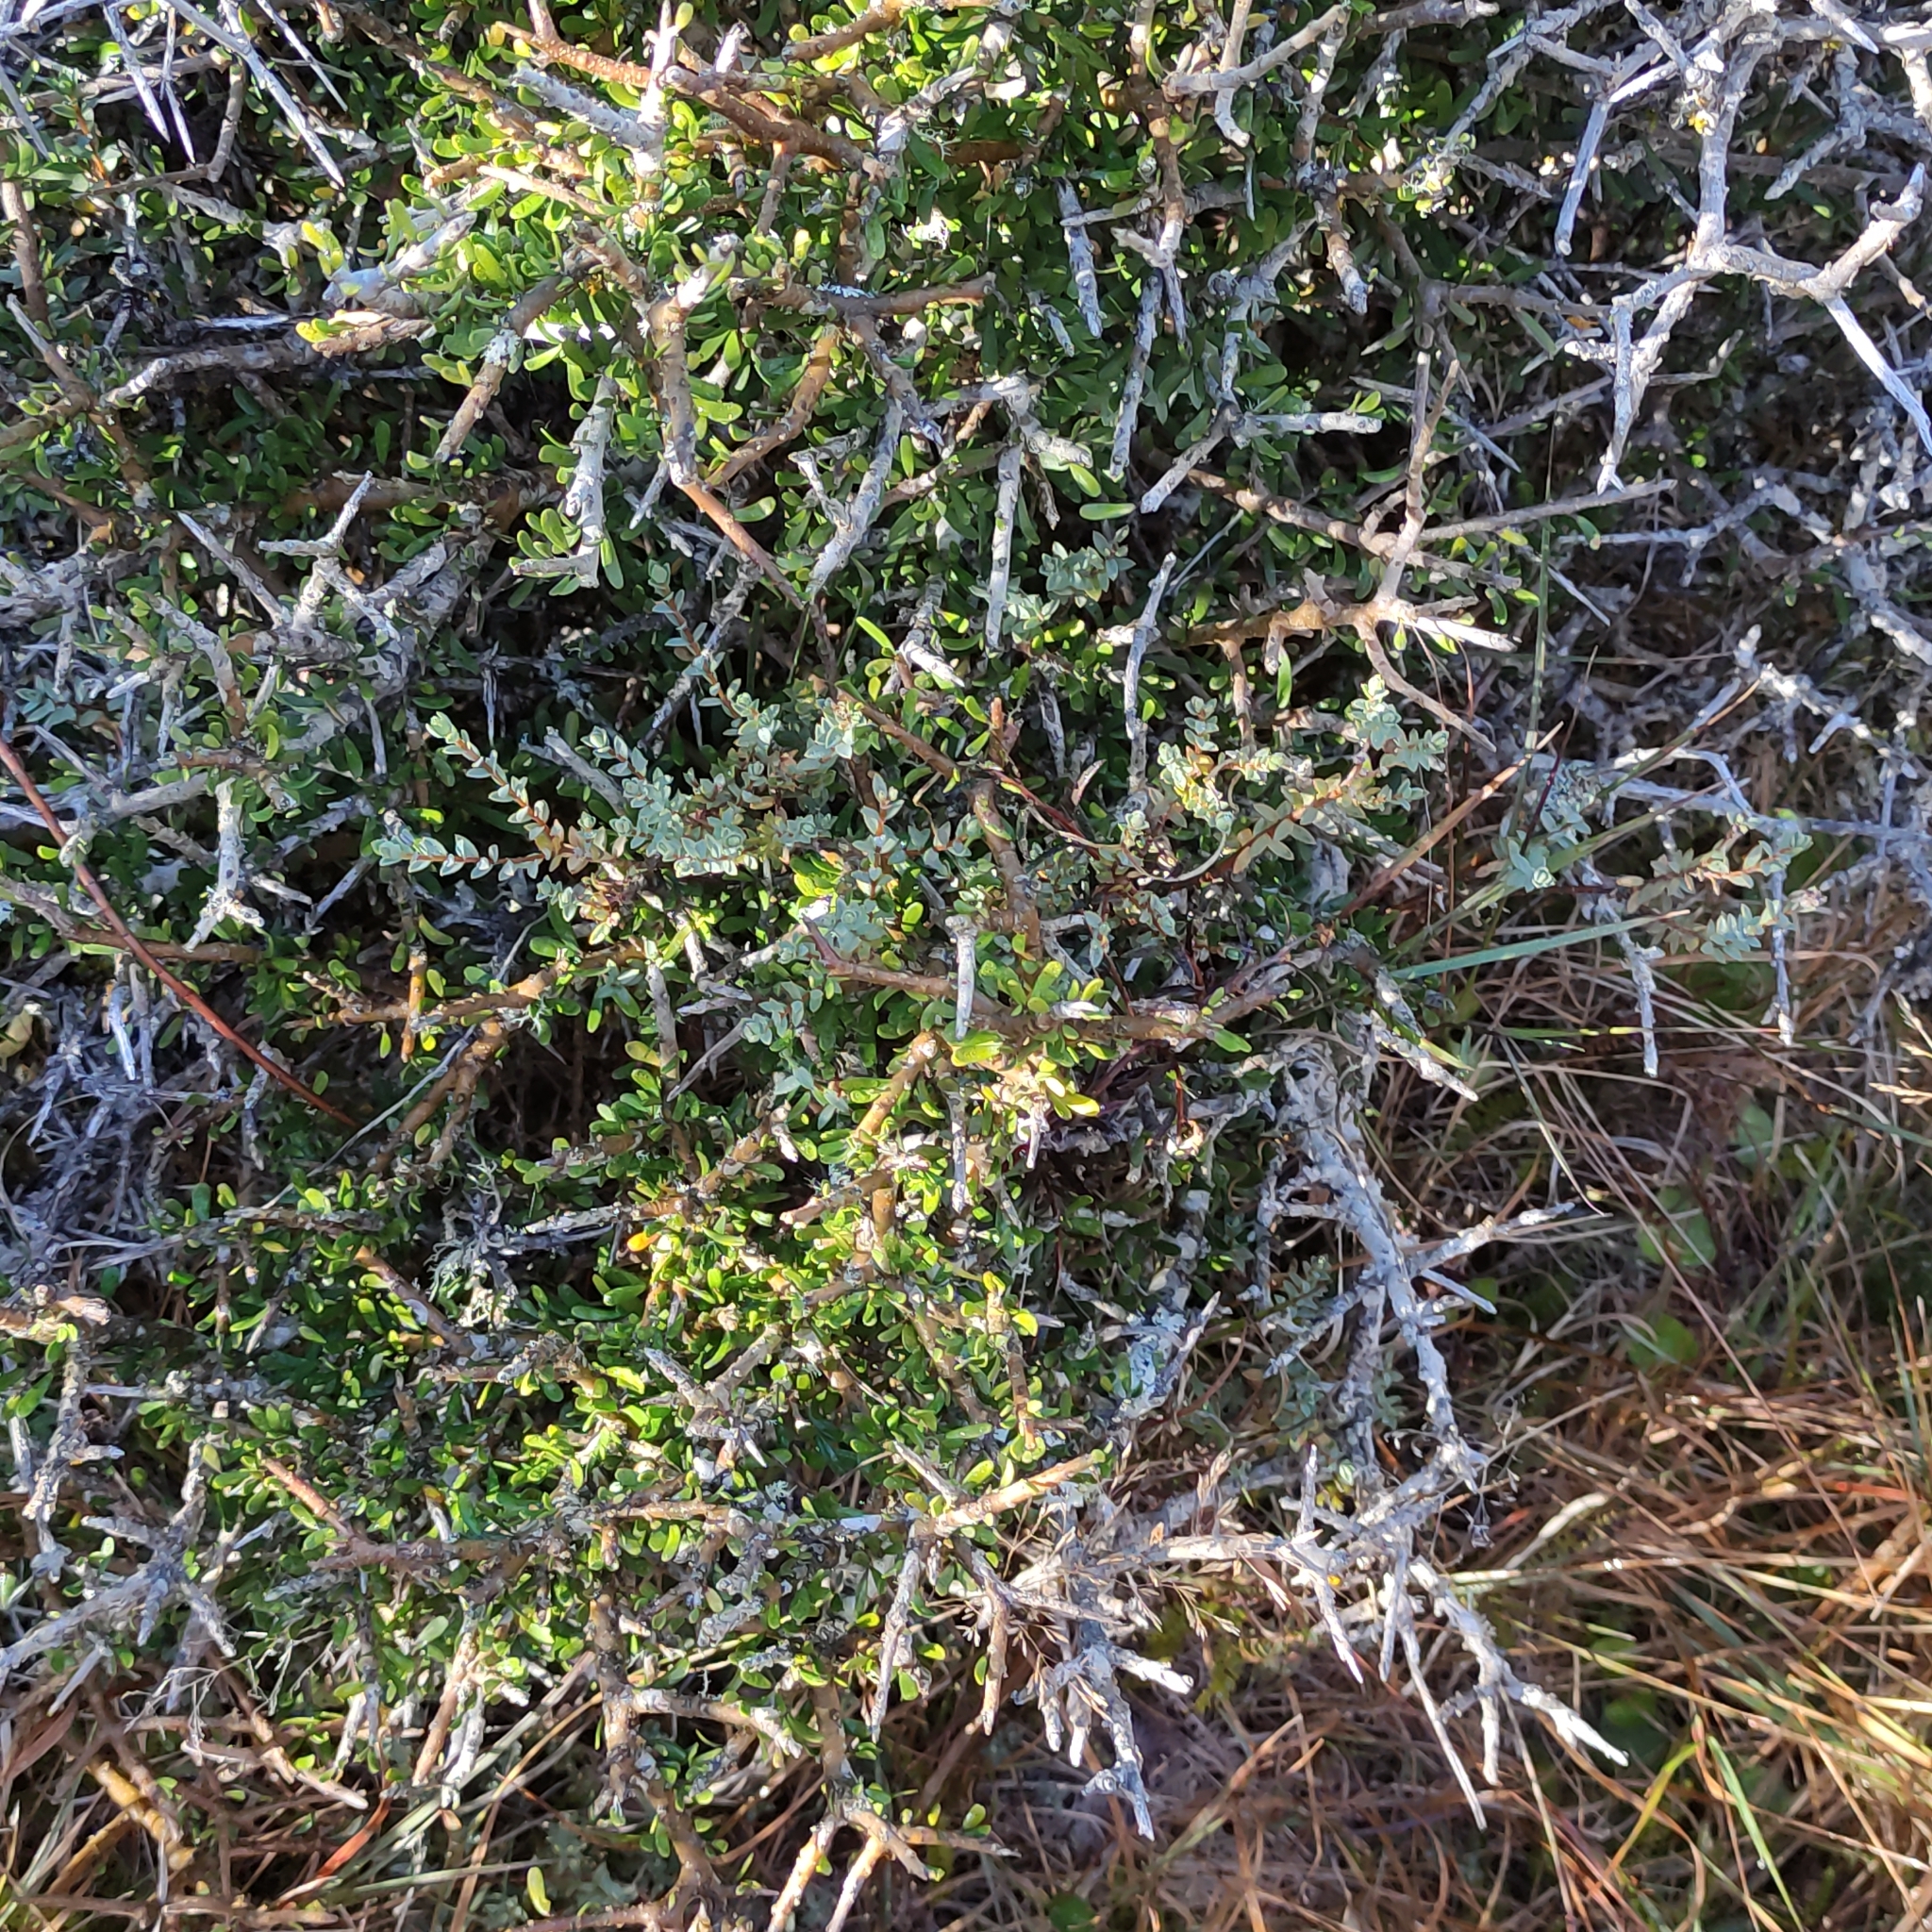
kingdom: Plantae
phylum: Tracheophyta
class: Magnoliopsida
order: Malpighiales
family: Violaceae
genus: Melicytus
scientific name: Melicytus alpinus
